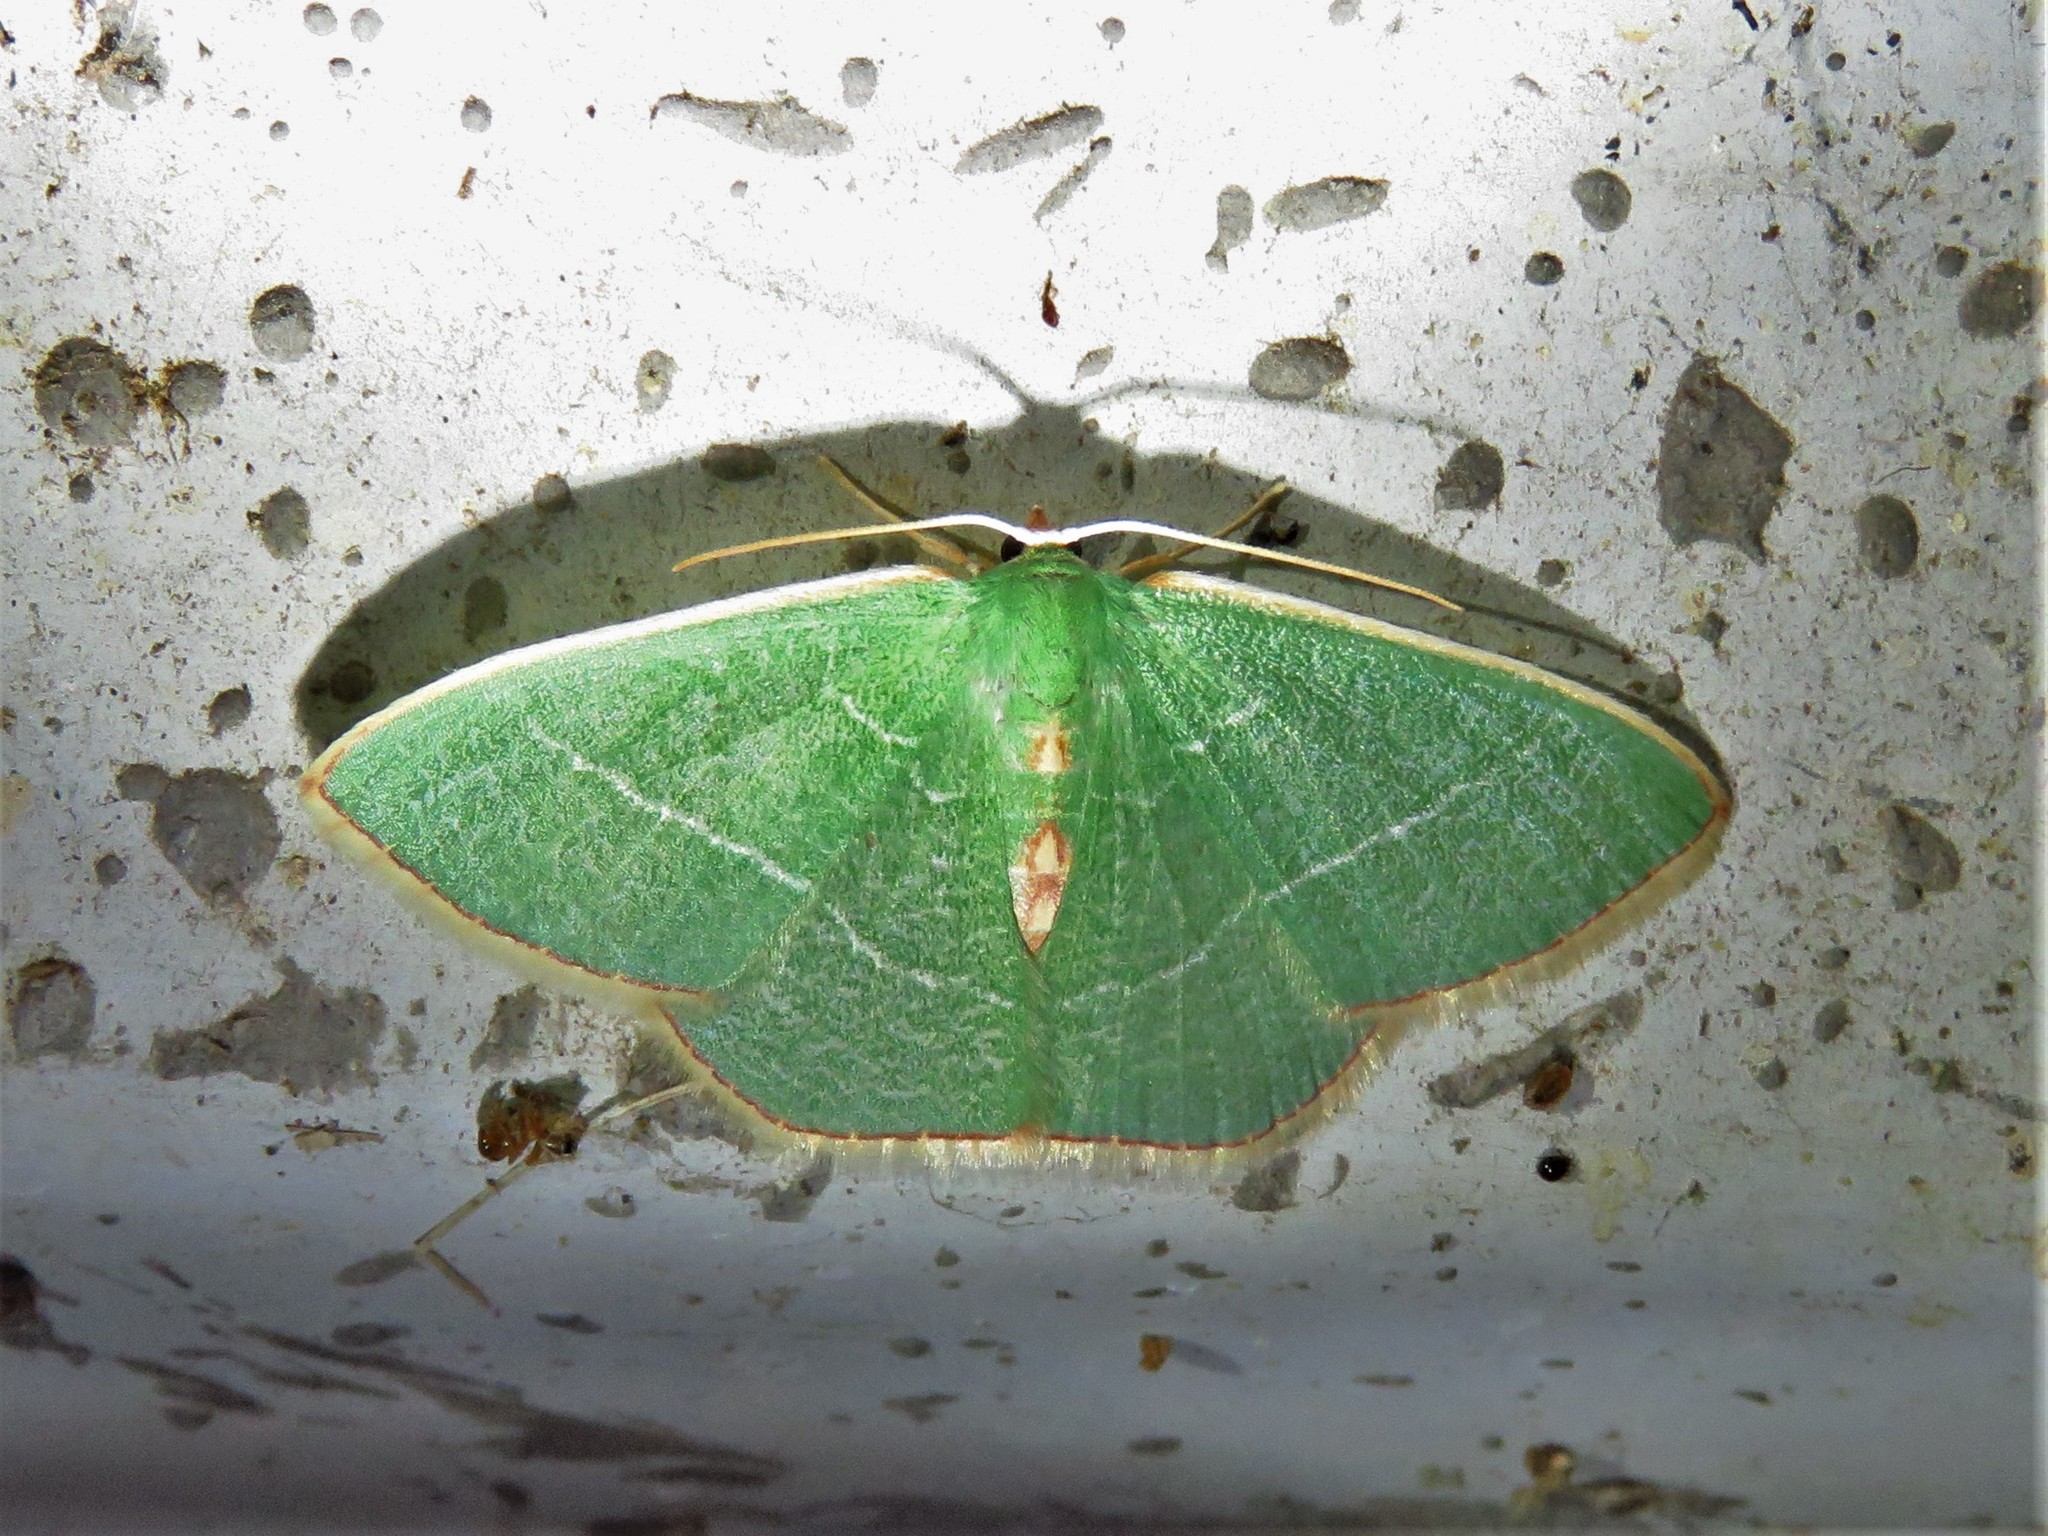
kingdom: Animalia
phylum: Arthropoda
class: Insecta
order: Lepidoptera
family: Geometridae
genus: Nemoria
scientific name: Nemoria bifilata
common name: White-barred emerald moth
